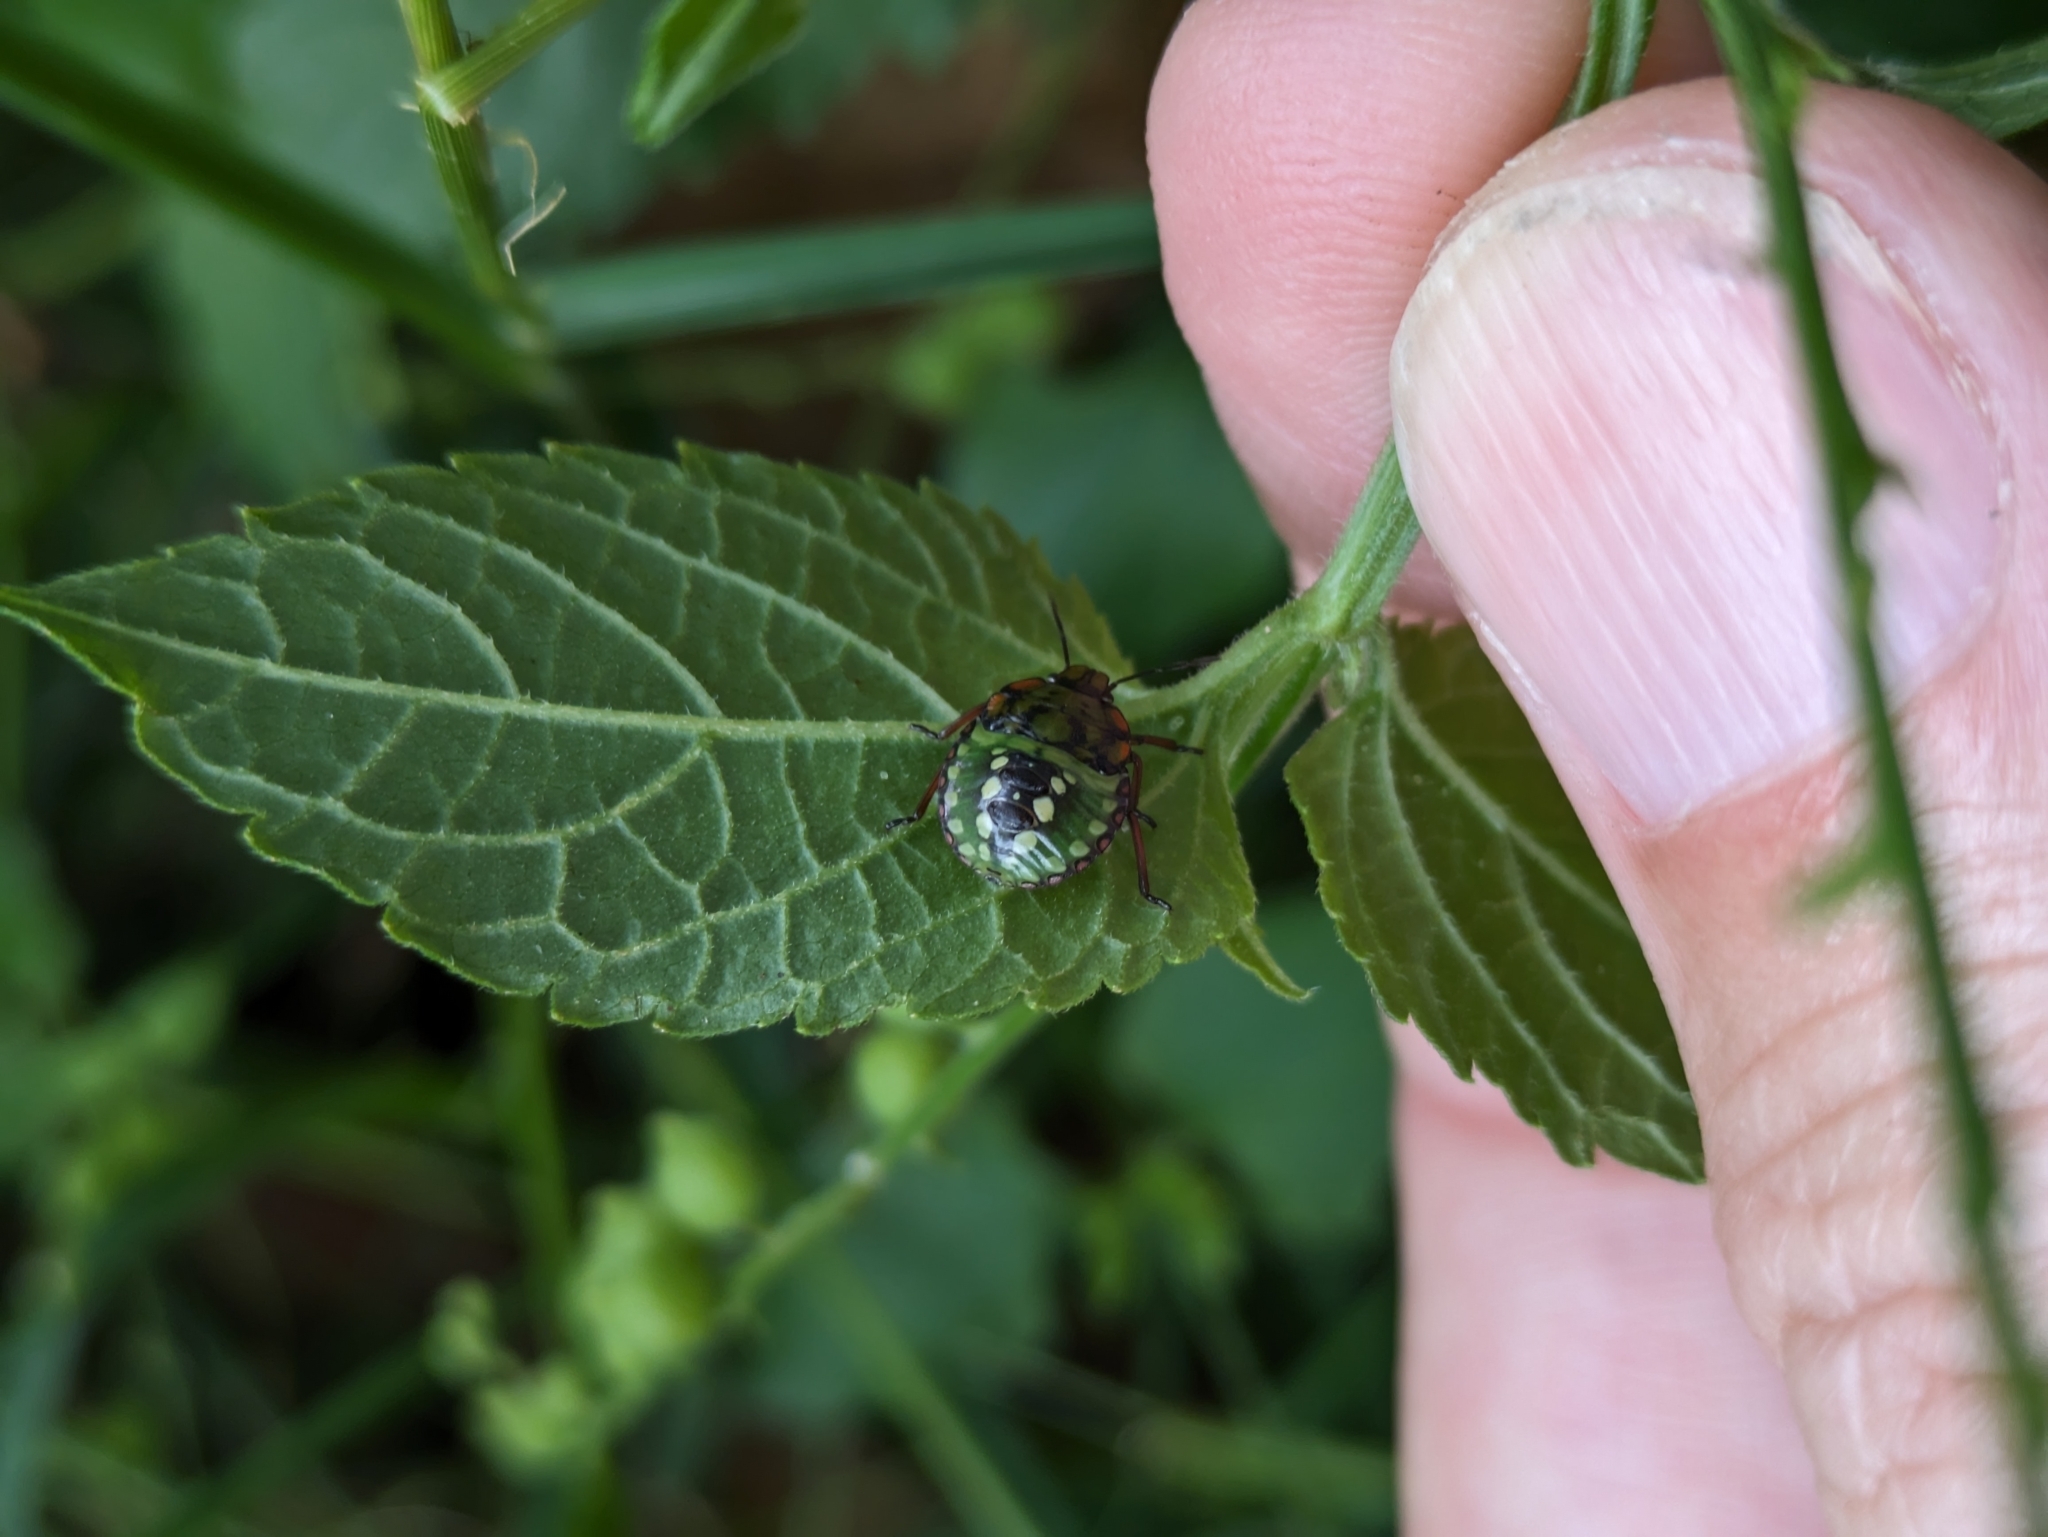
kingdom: Animalia
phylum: Arthropoda
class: Insecta
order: Hemiptera
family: Pentatomidae
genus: Nezara
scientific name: Nezara viridula
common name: Southern green stink bug
